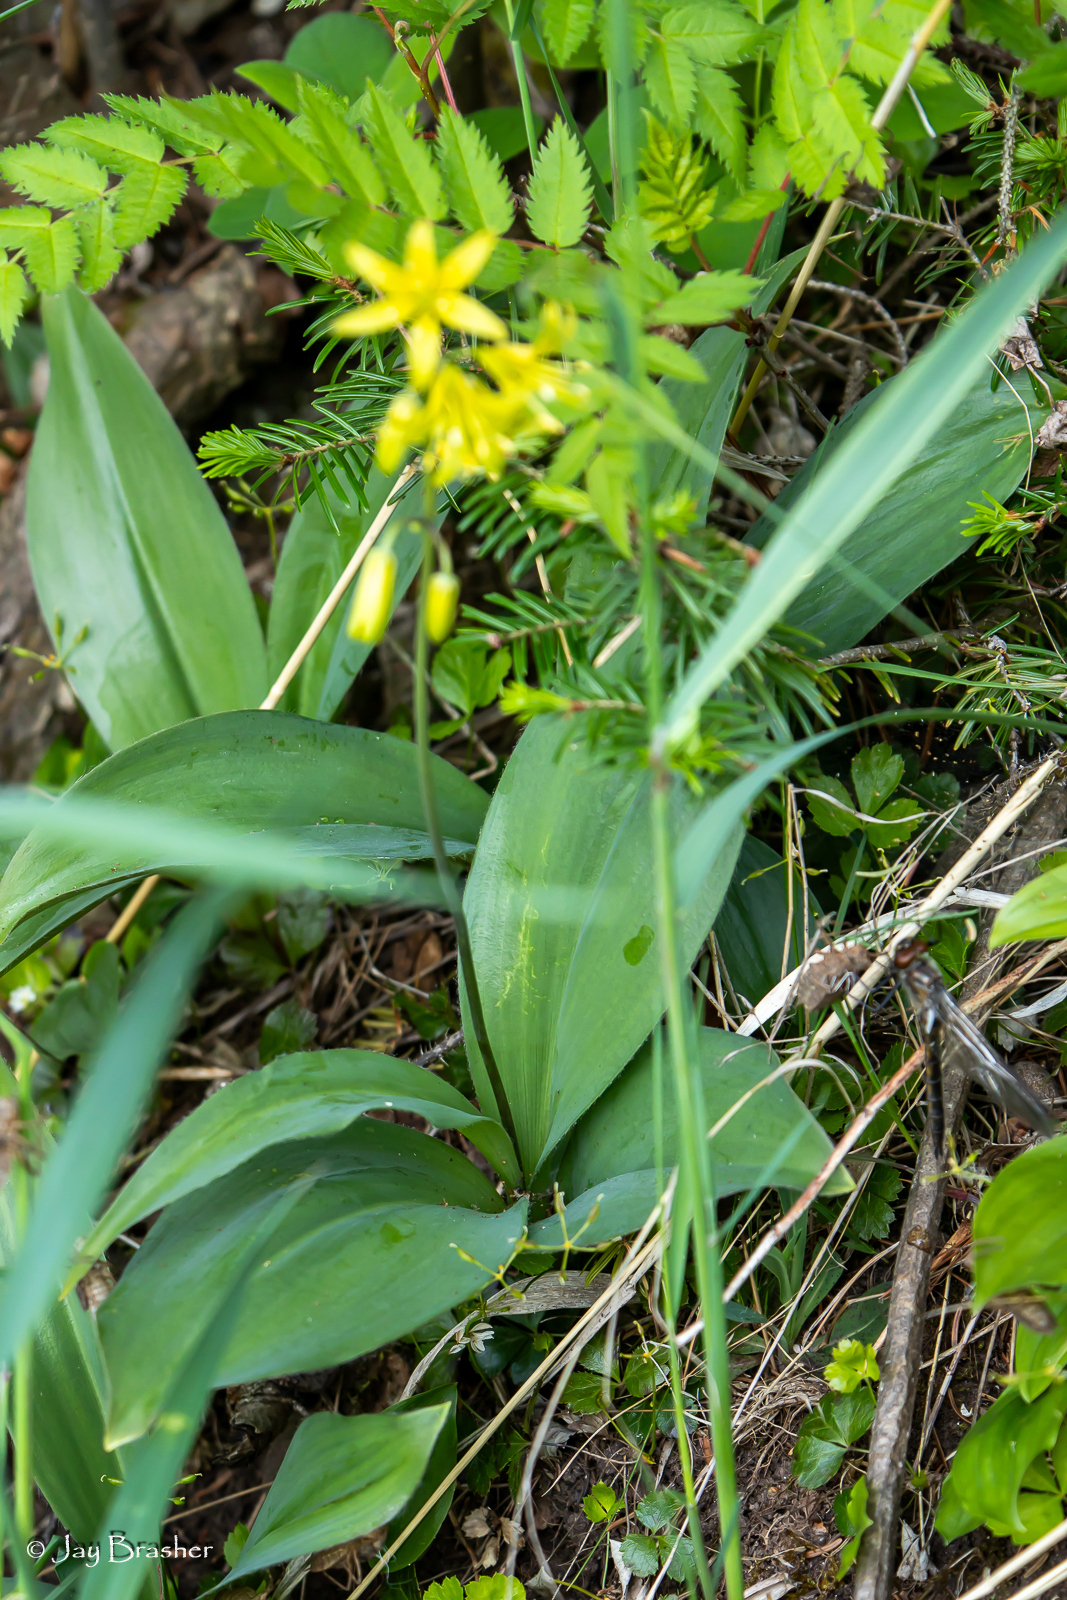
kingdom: Plantae
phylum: Tracheophyta
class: Liliopsida
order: Liliales
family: Liliaceae
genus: Clintonia
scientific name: Clintonia borealis
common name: Yellow clintonia
